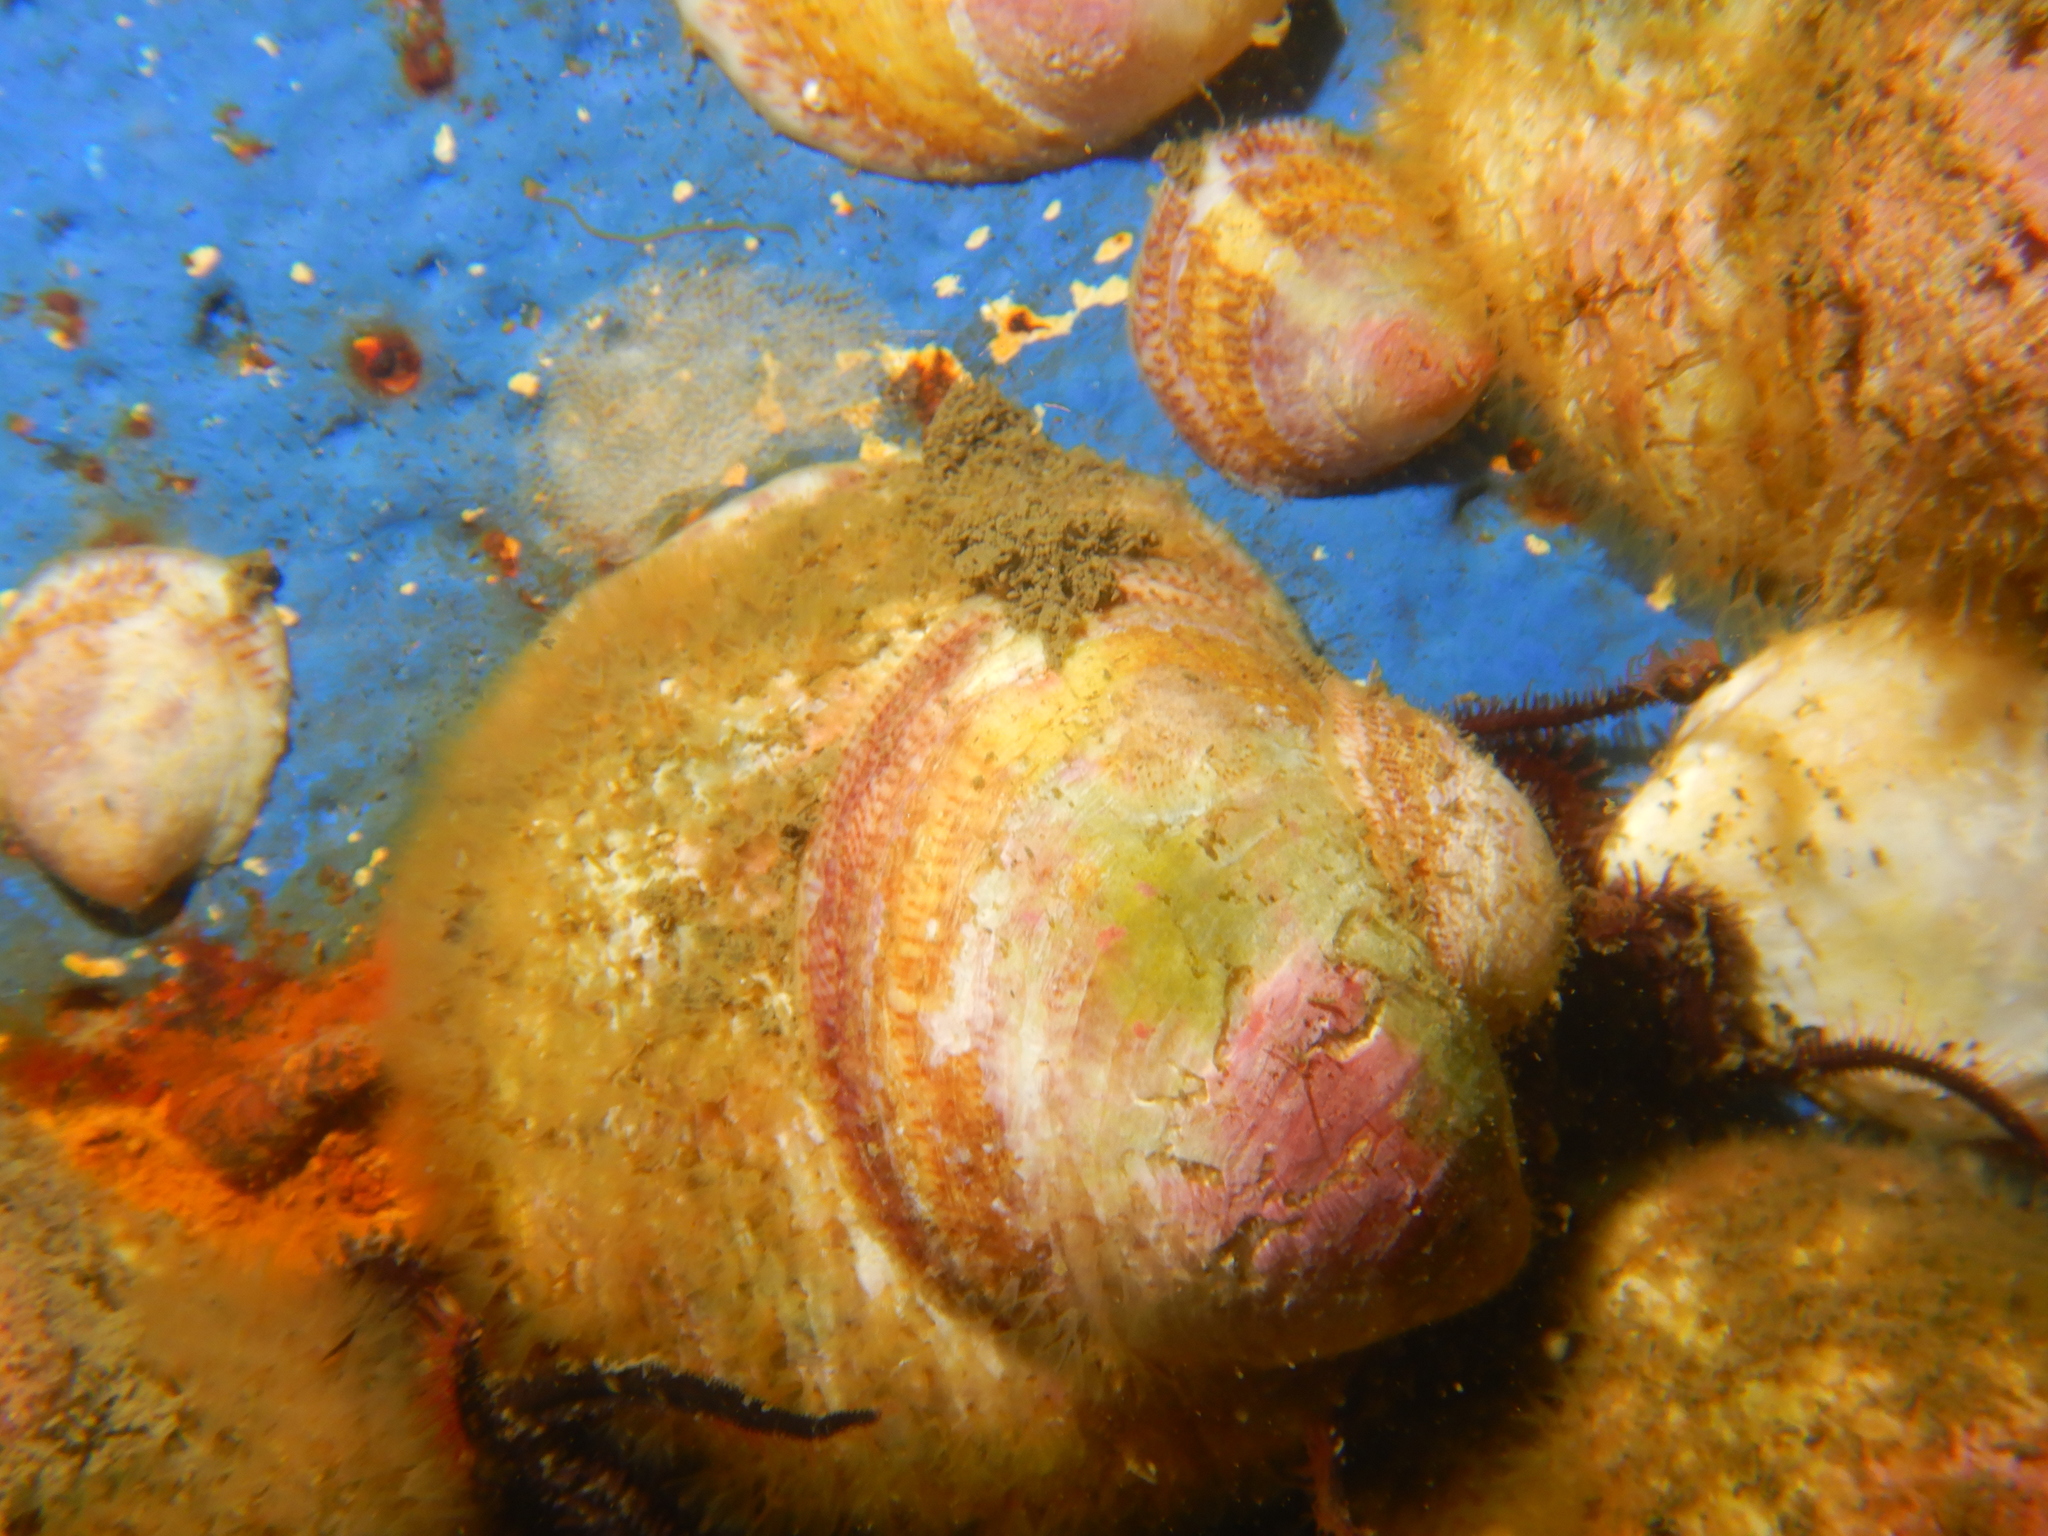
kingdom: Animalia
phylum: Mollusca
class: Gastropoda
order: Littorinimorpha
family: Calyptraeidae
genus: Crepipatella
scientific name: Crepipatella dilatata
